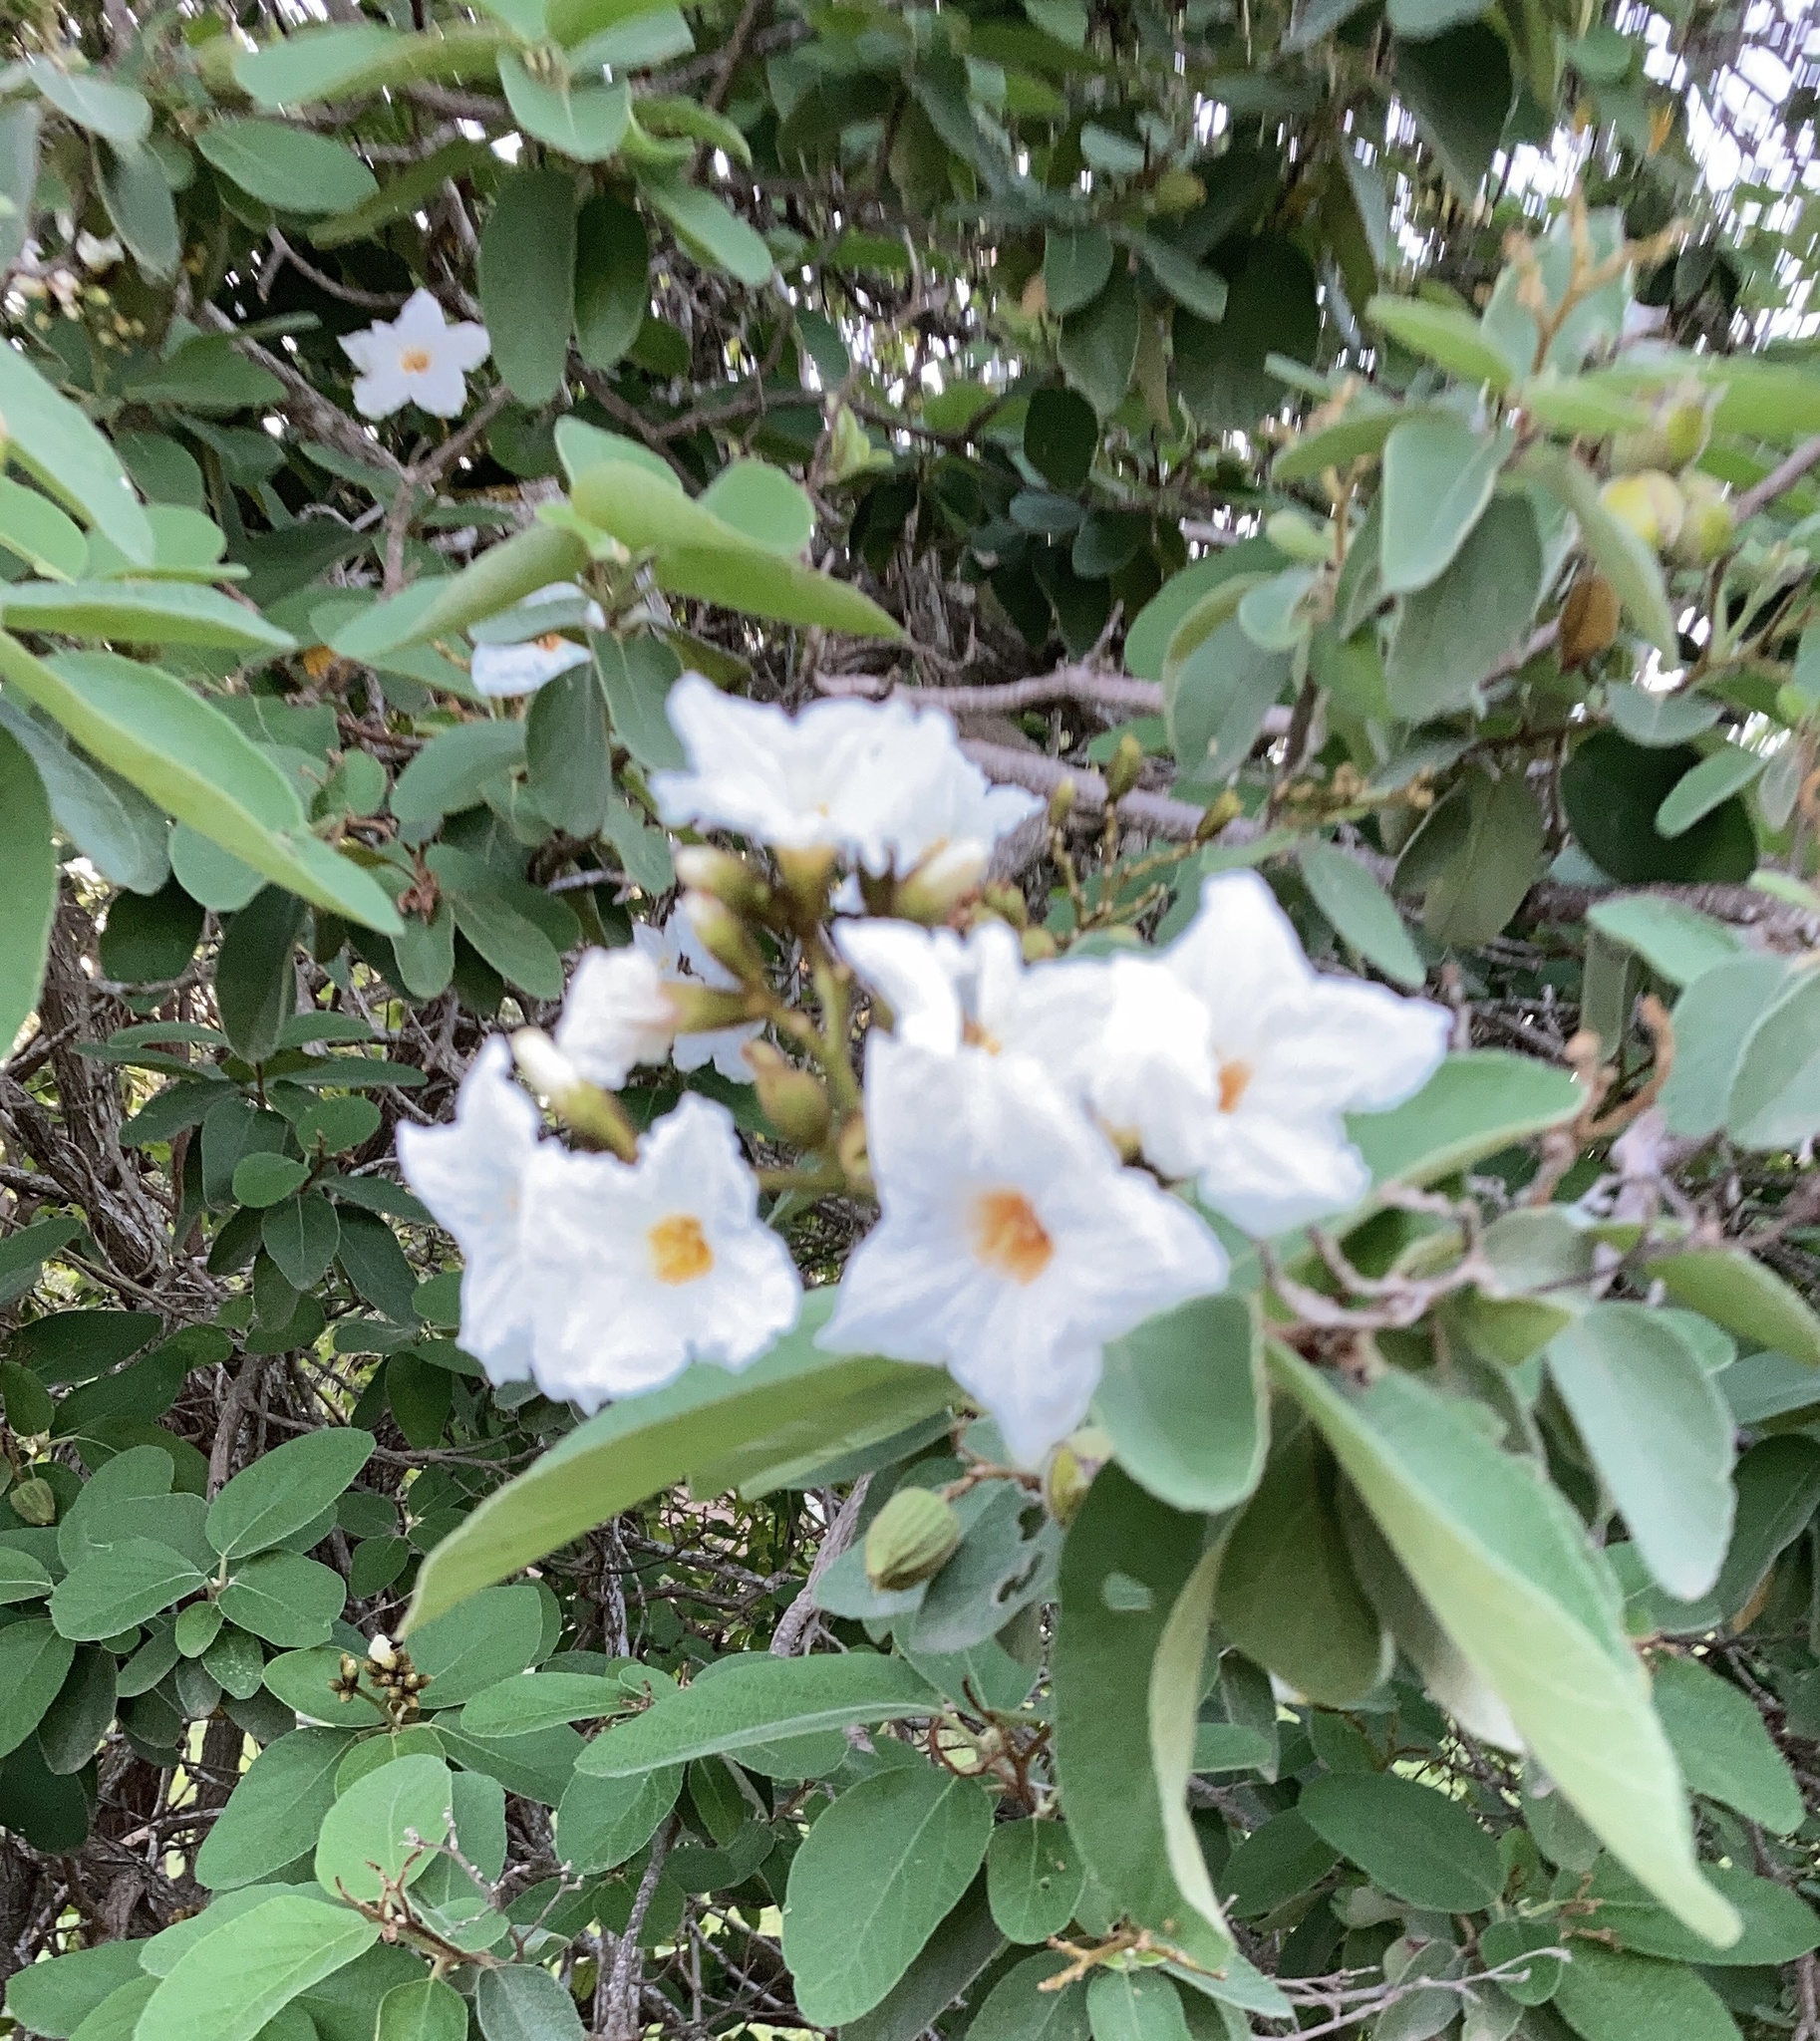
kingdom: Plantae
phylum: Tracheophyta
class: Magnoliopsida
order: Boraginales
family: Cordiaceae
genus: Cordia
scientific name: Cordia boissieri
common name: Mexican-olive
